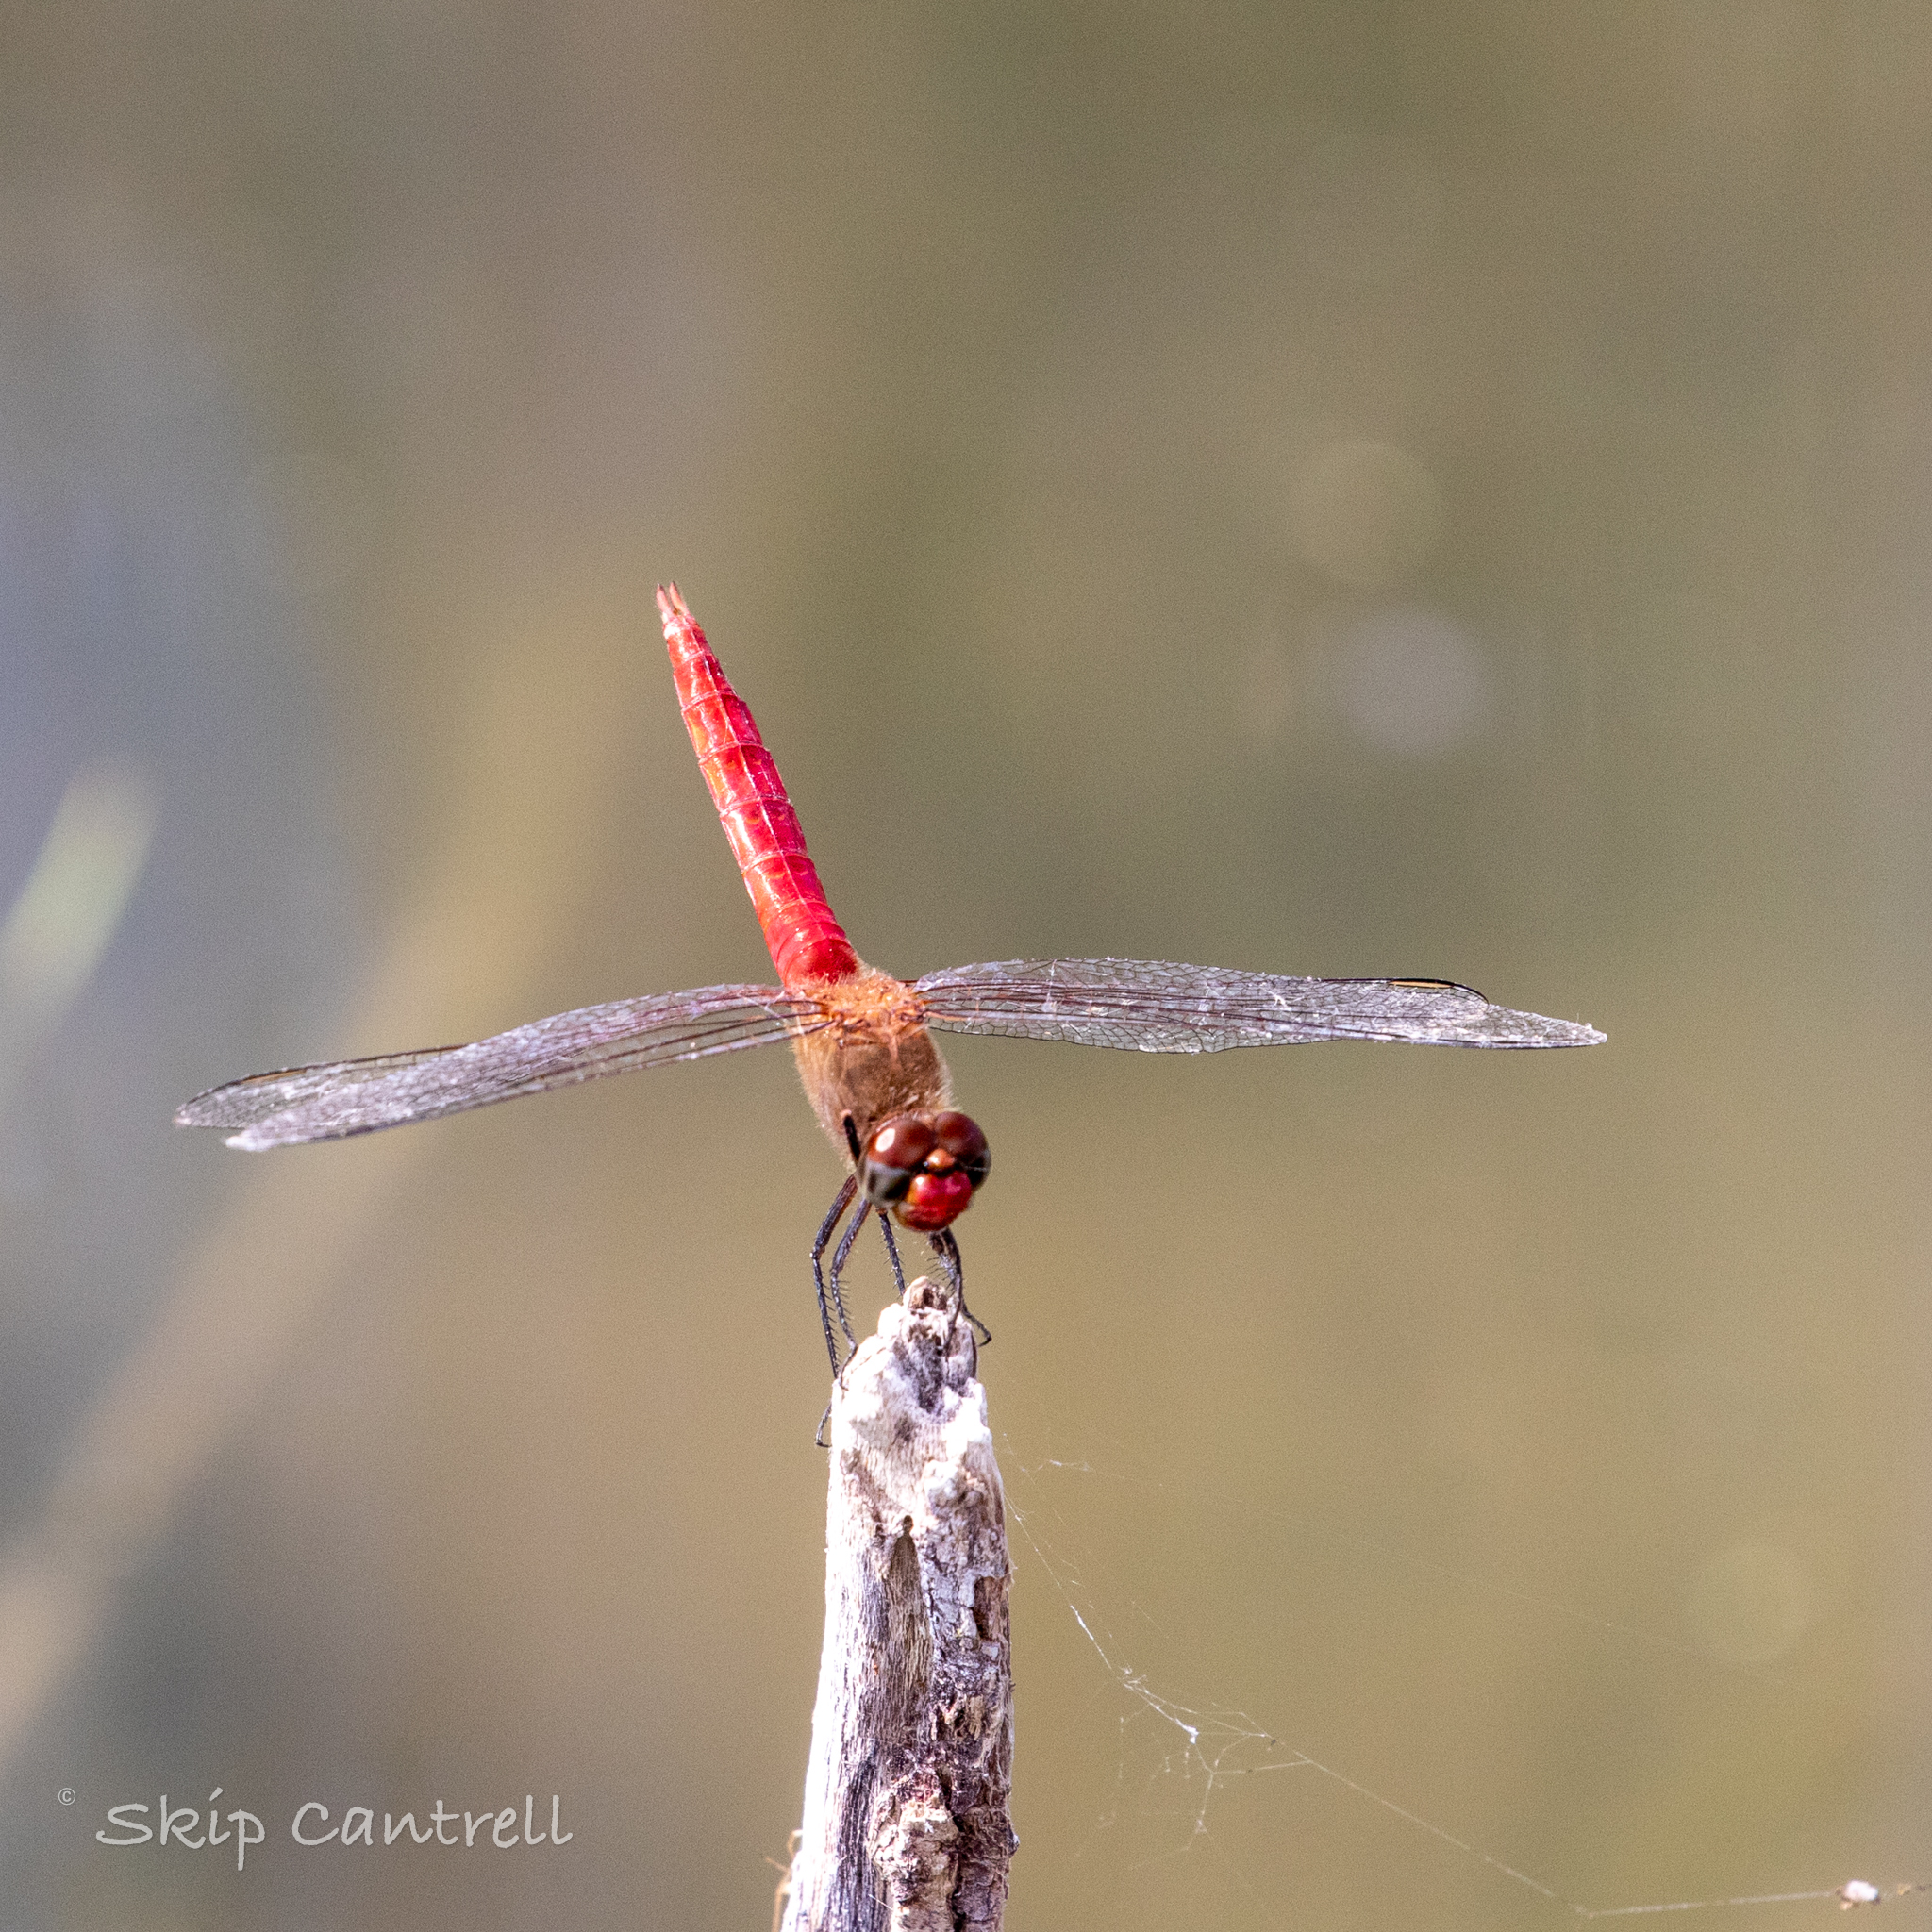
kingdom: Animalia
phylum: Arthropoda
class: Insecta
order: Odonata
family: Libellulidae
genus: Brachymesia
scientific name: Brachymesia furcata
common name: Red-taled pennant
